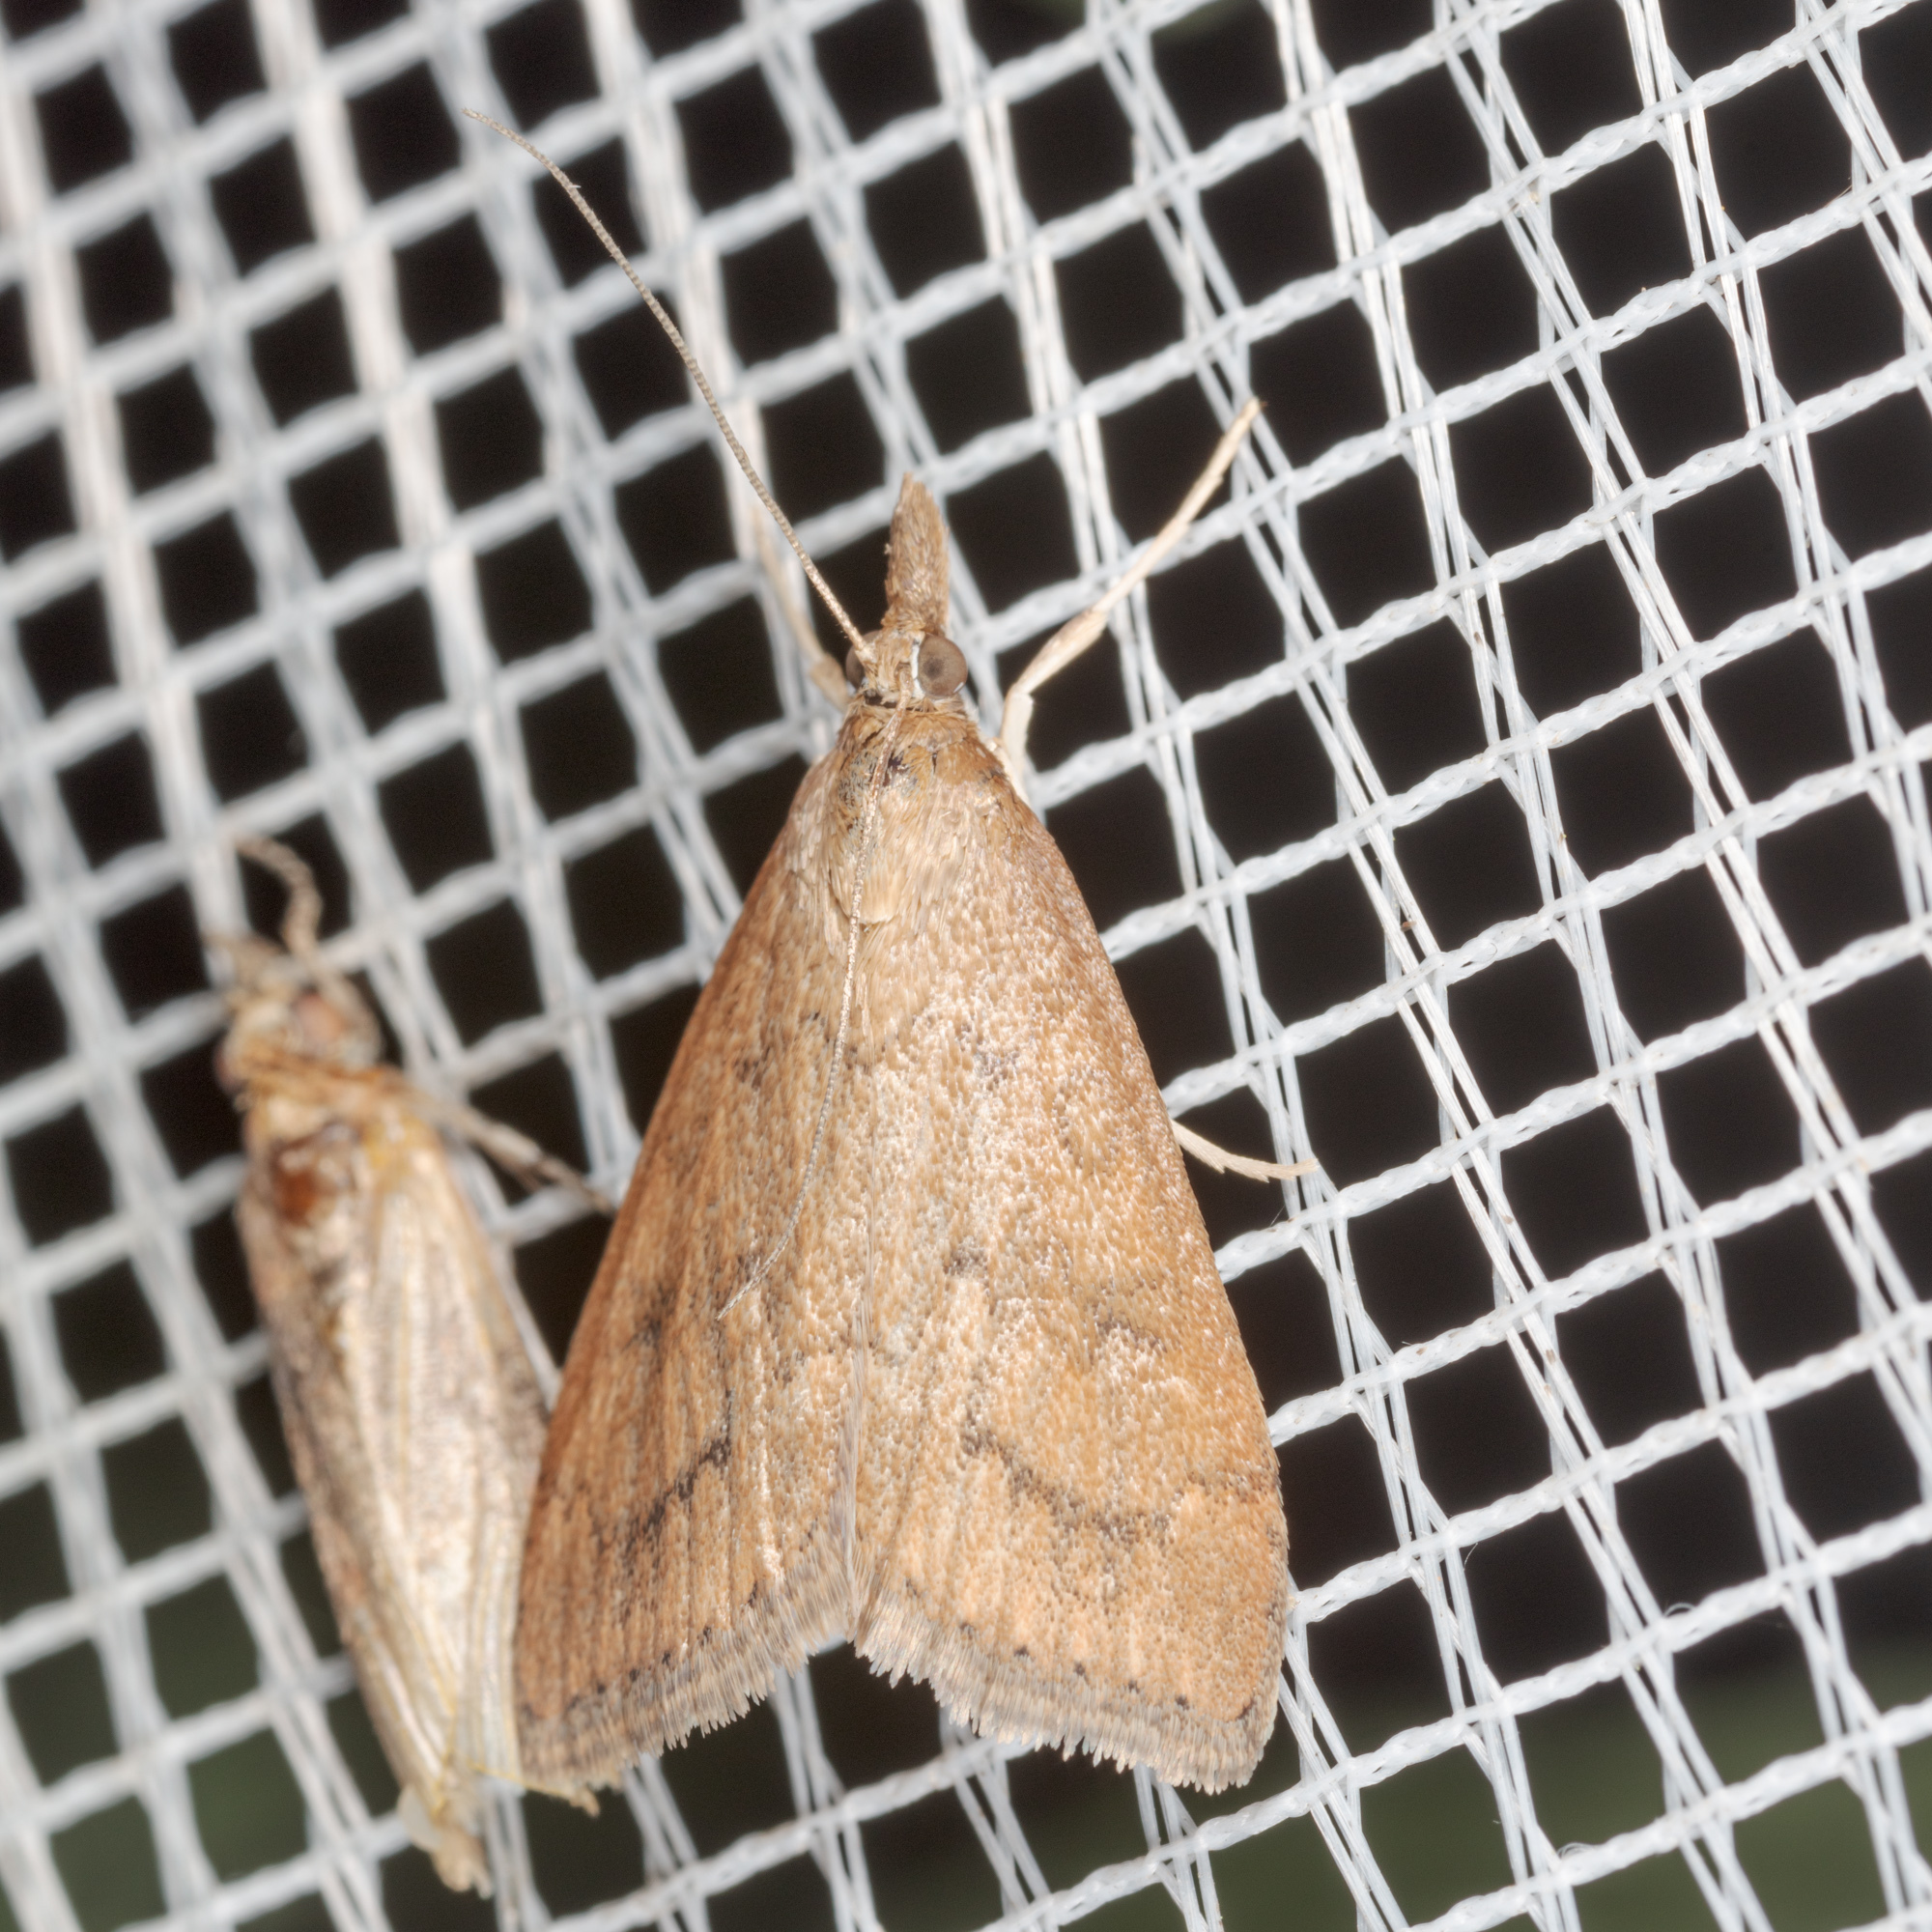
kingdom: Animalia
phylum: Arthropoda
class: Insecta
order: Lepidoptera
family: Crambidae
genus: Udea
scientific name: Udea rubigalis
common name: Celery leaftier moth
